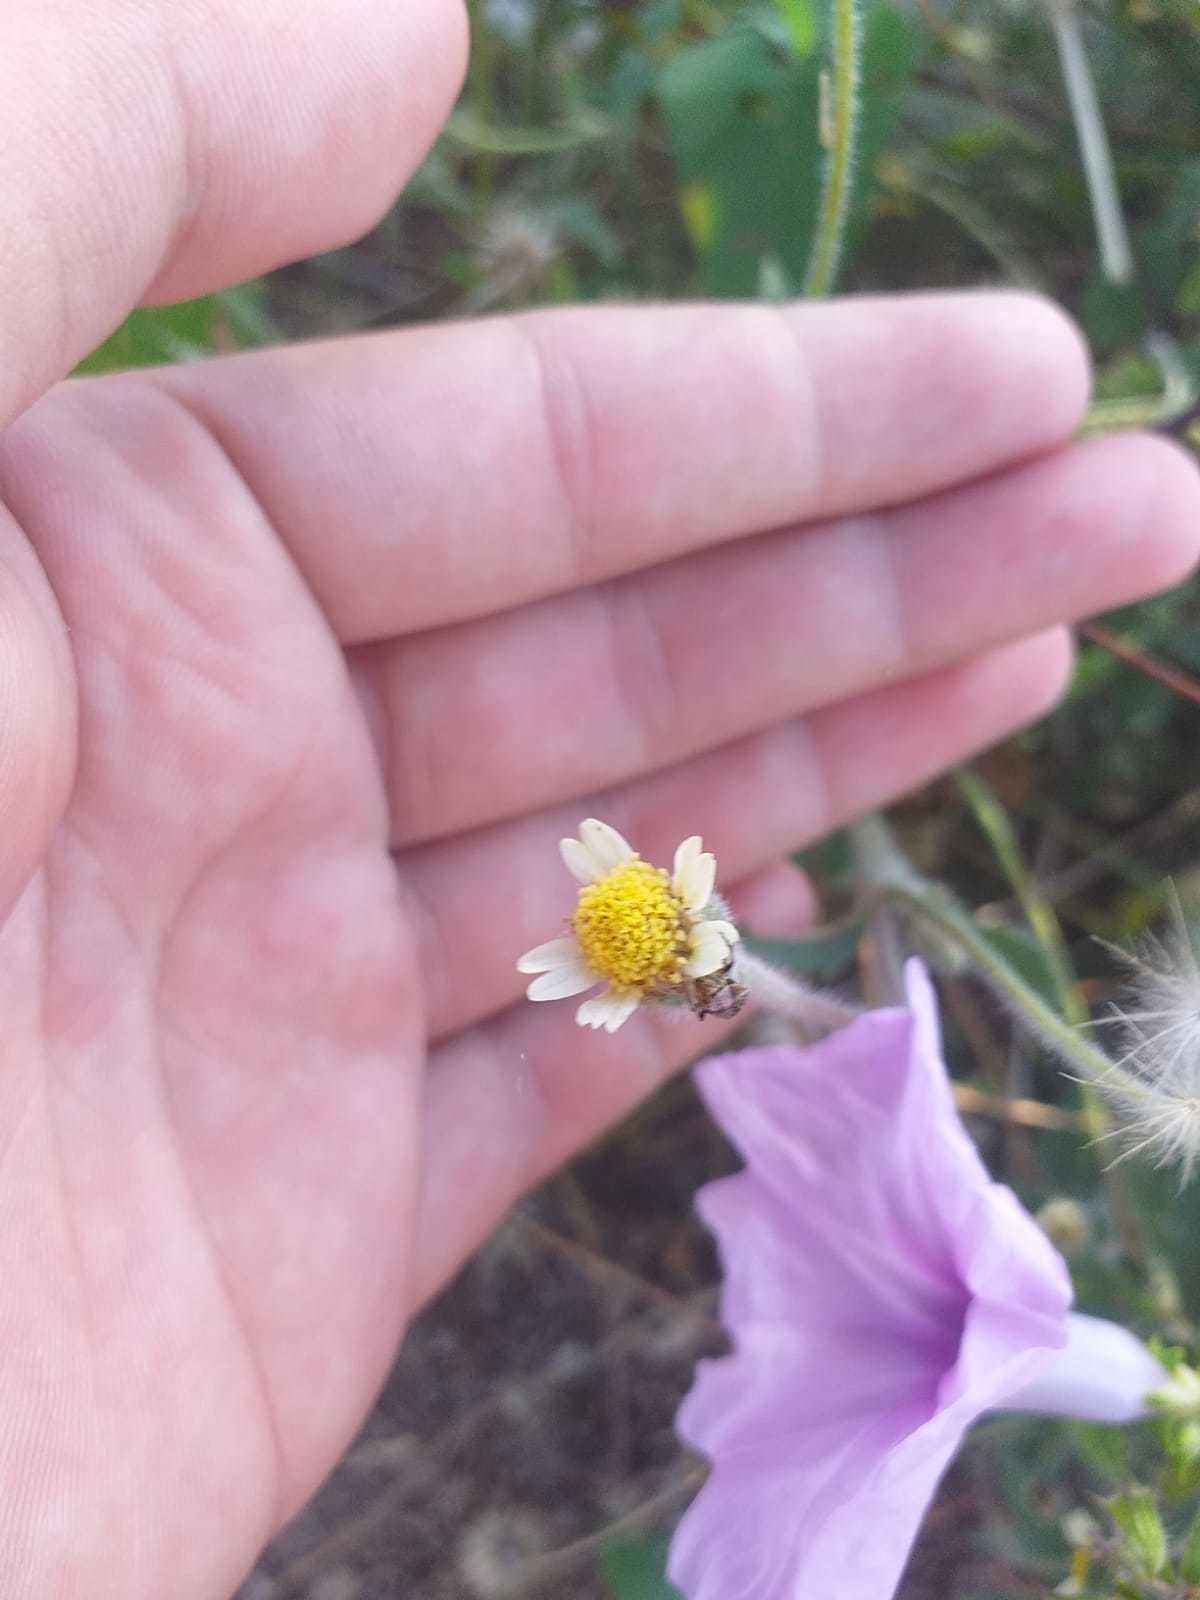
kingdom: Plantae
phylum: Tracheophyta
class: Magnoliopsida
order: Asterales
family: Asteraceae
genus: Tridax
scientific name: Tridax procumbens
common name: Coatbuttons
